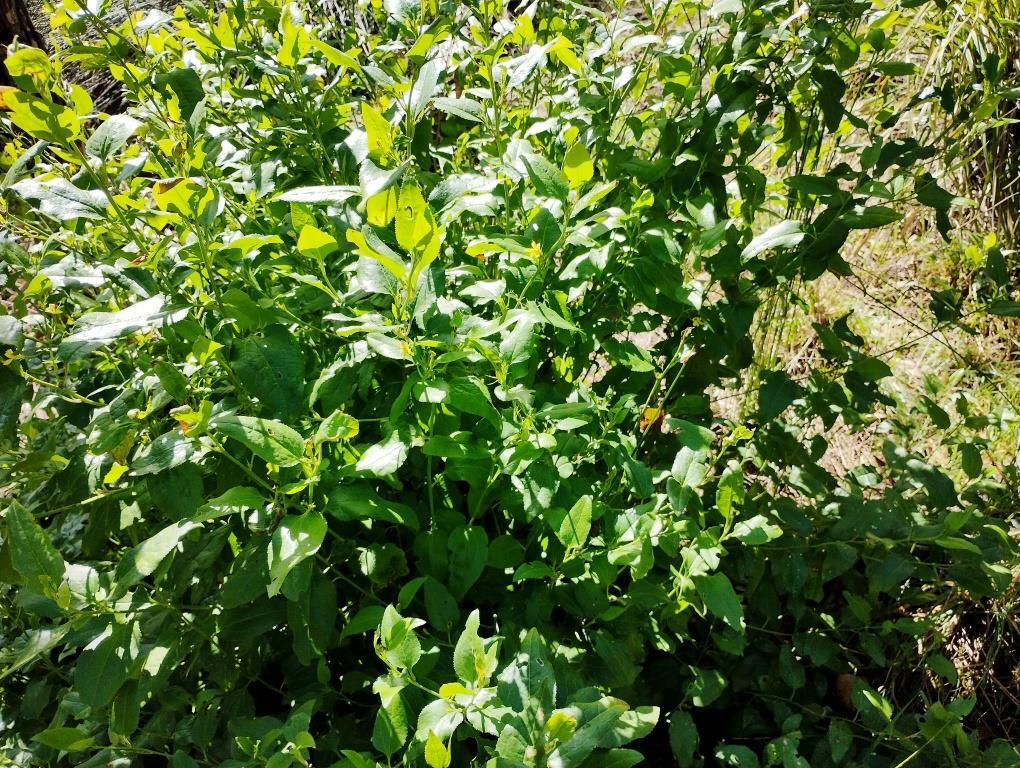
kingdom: Plantae
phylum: Tracheophyta
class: Magnoliopsida
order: Asterales
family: Goodeniaceae
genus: Goodenia
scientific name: Goodenia ovata
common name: Hop goodenia
